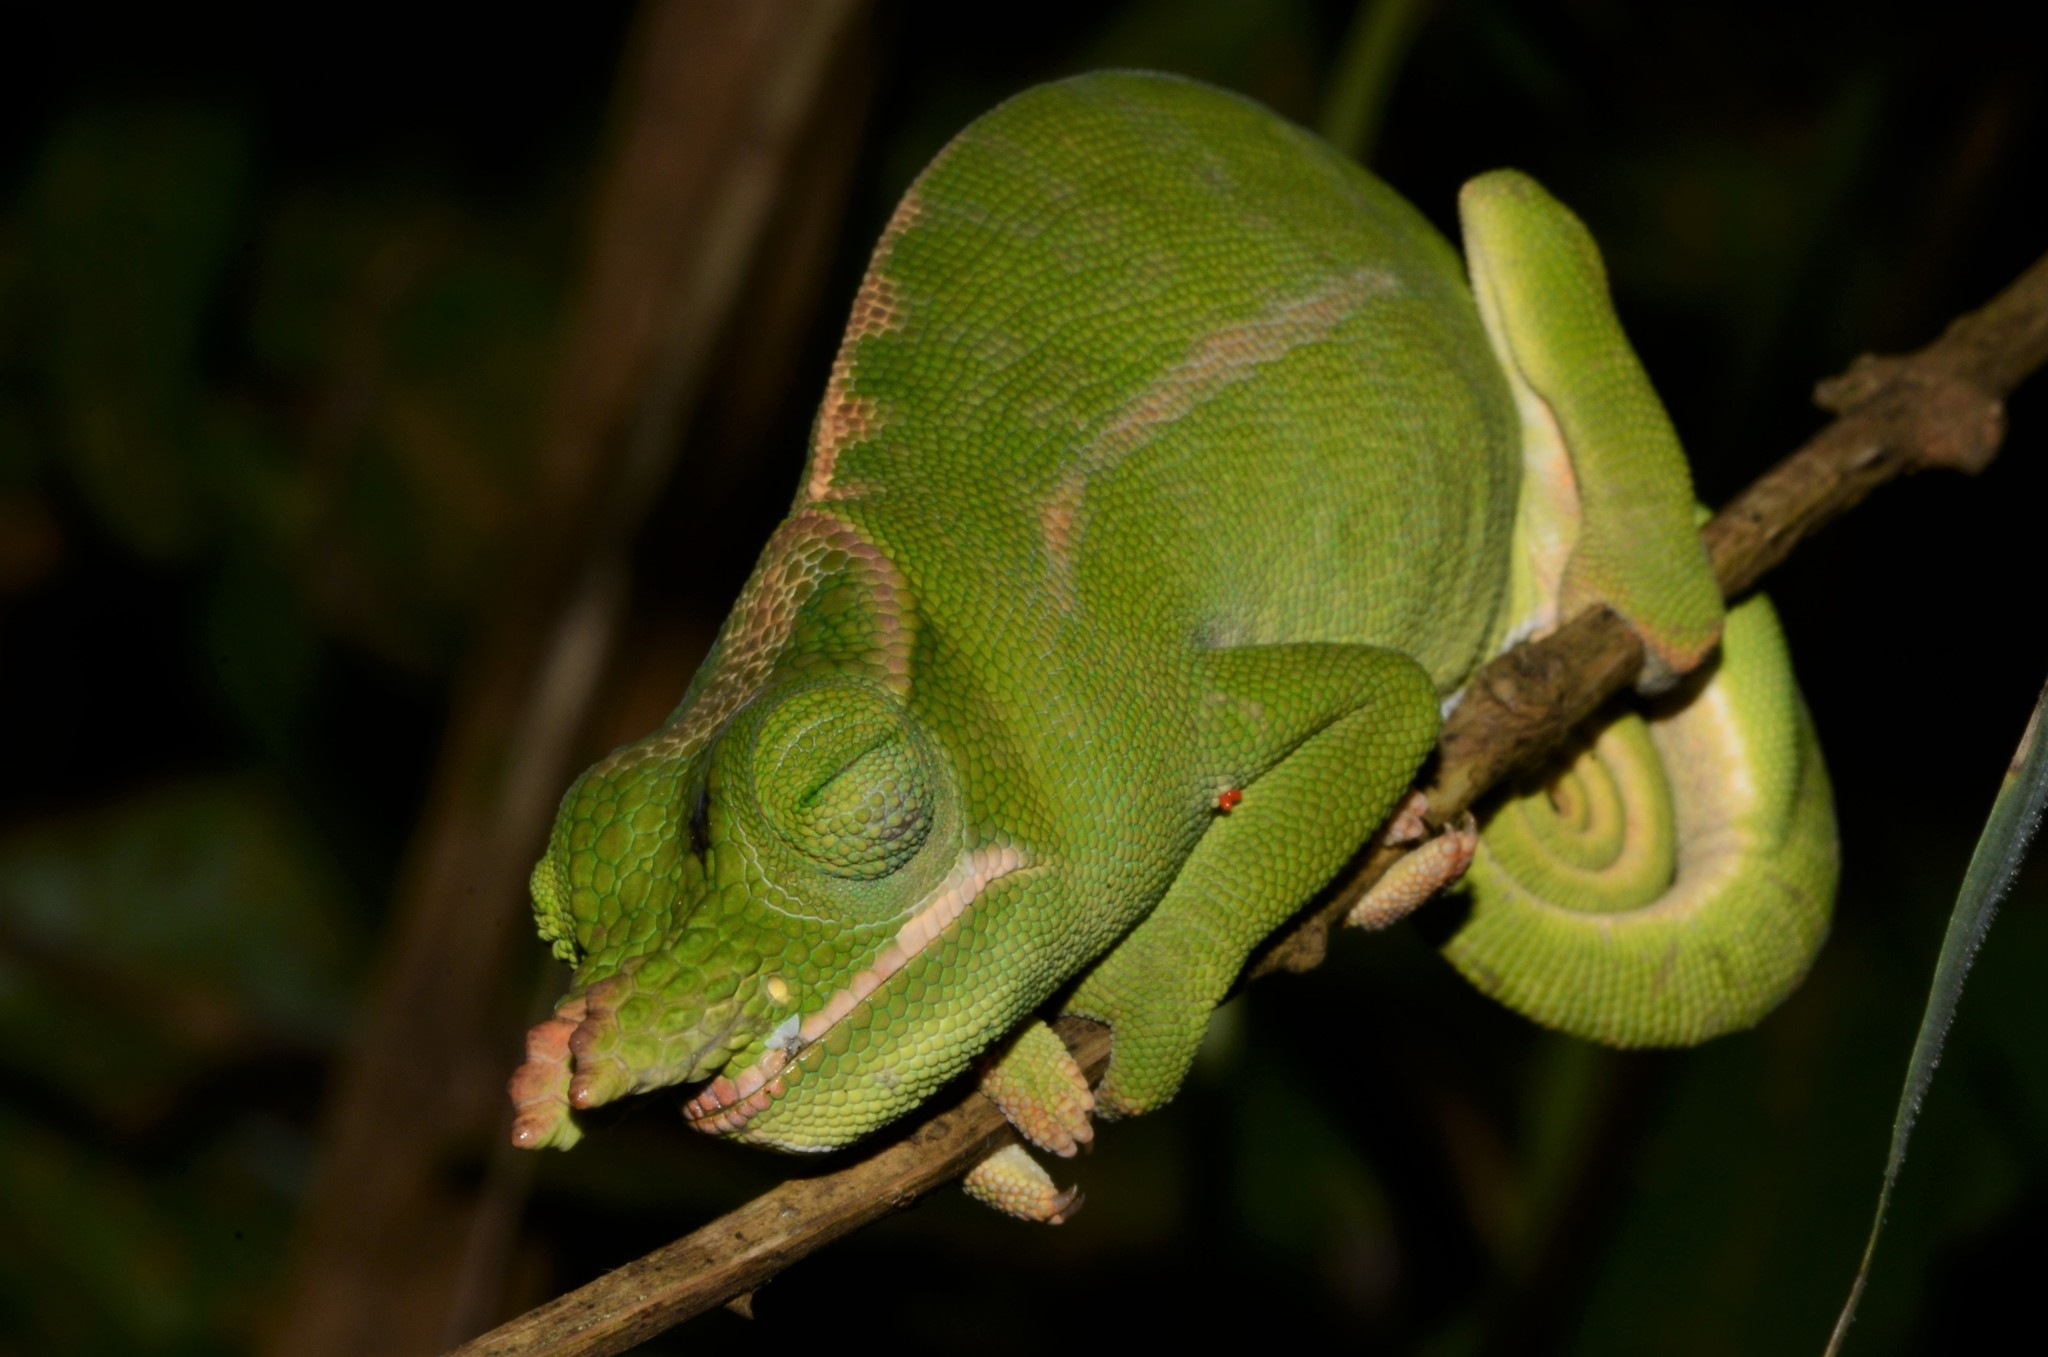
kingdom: Animalia
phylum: Chordata
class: Squamata
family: Chamaeleonidae
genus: Furcifer
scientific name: Furcifer petteri
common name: Petter's chameleon
